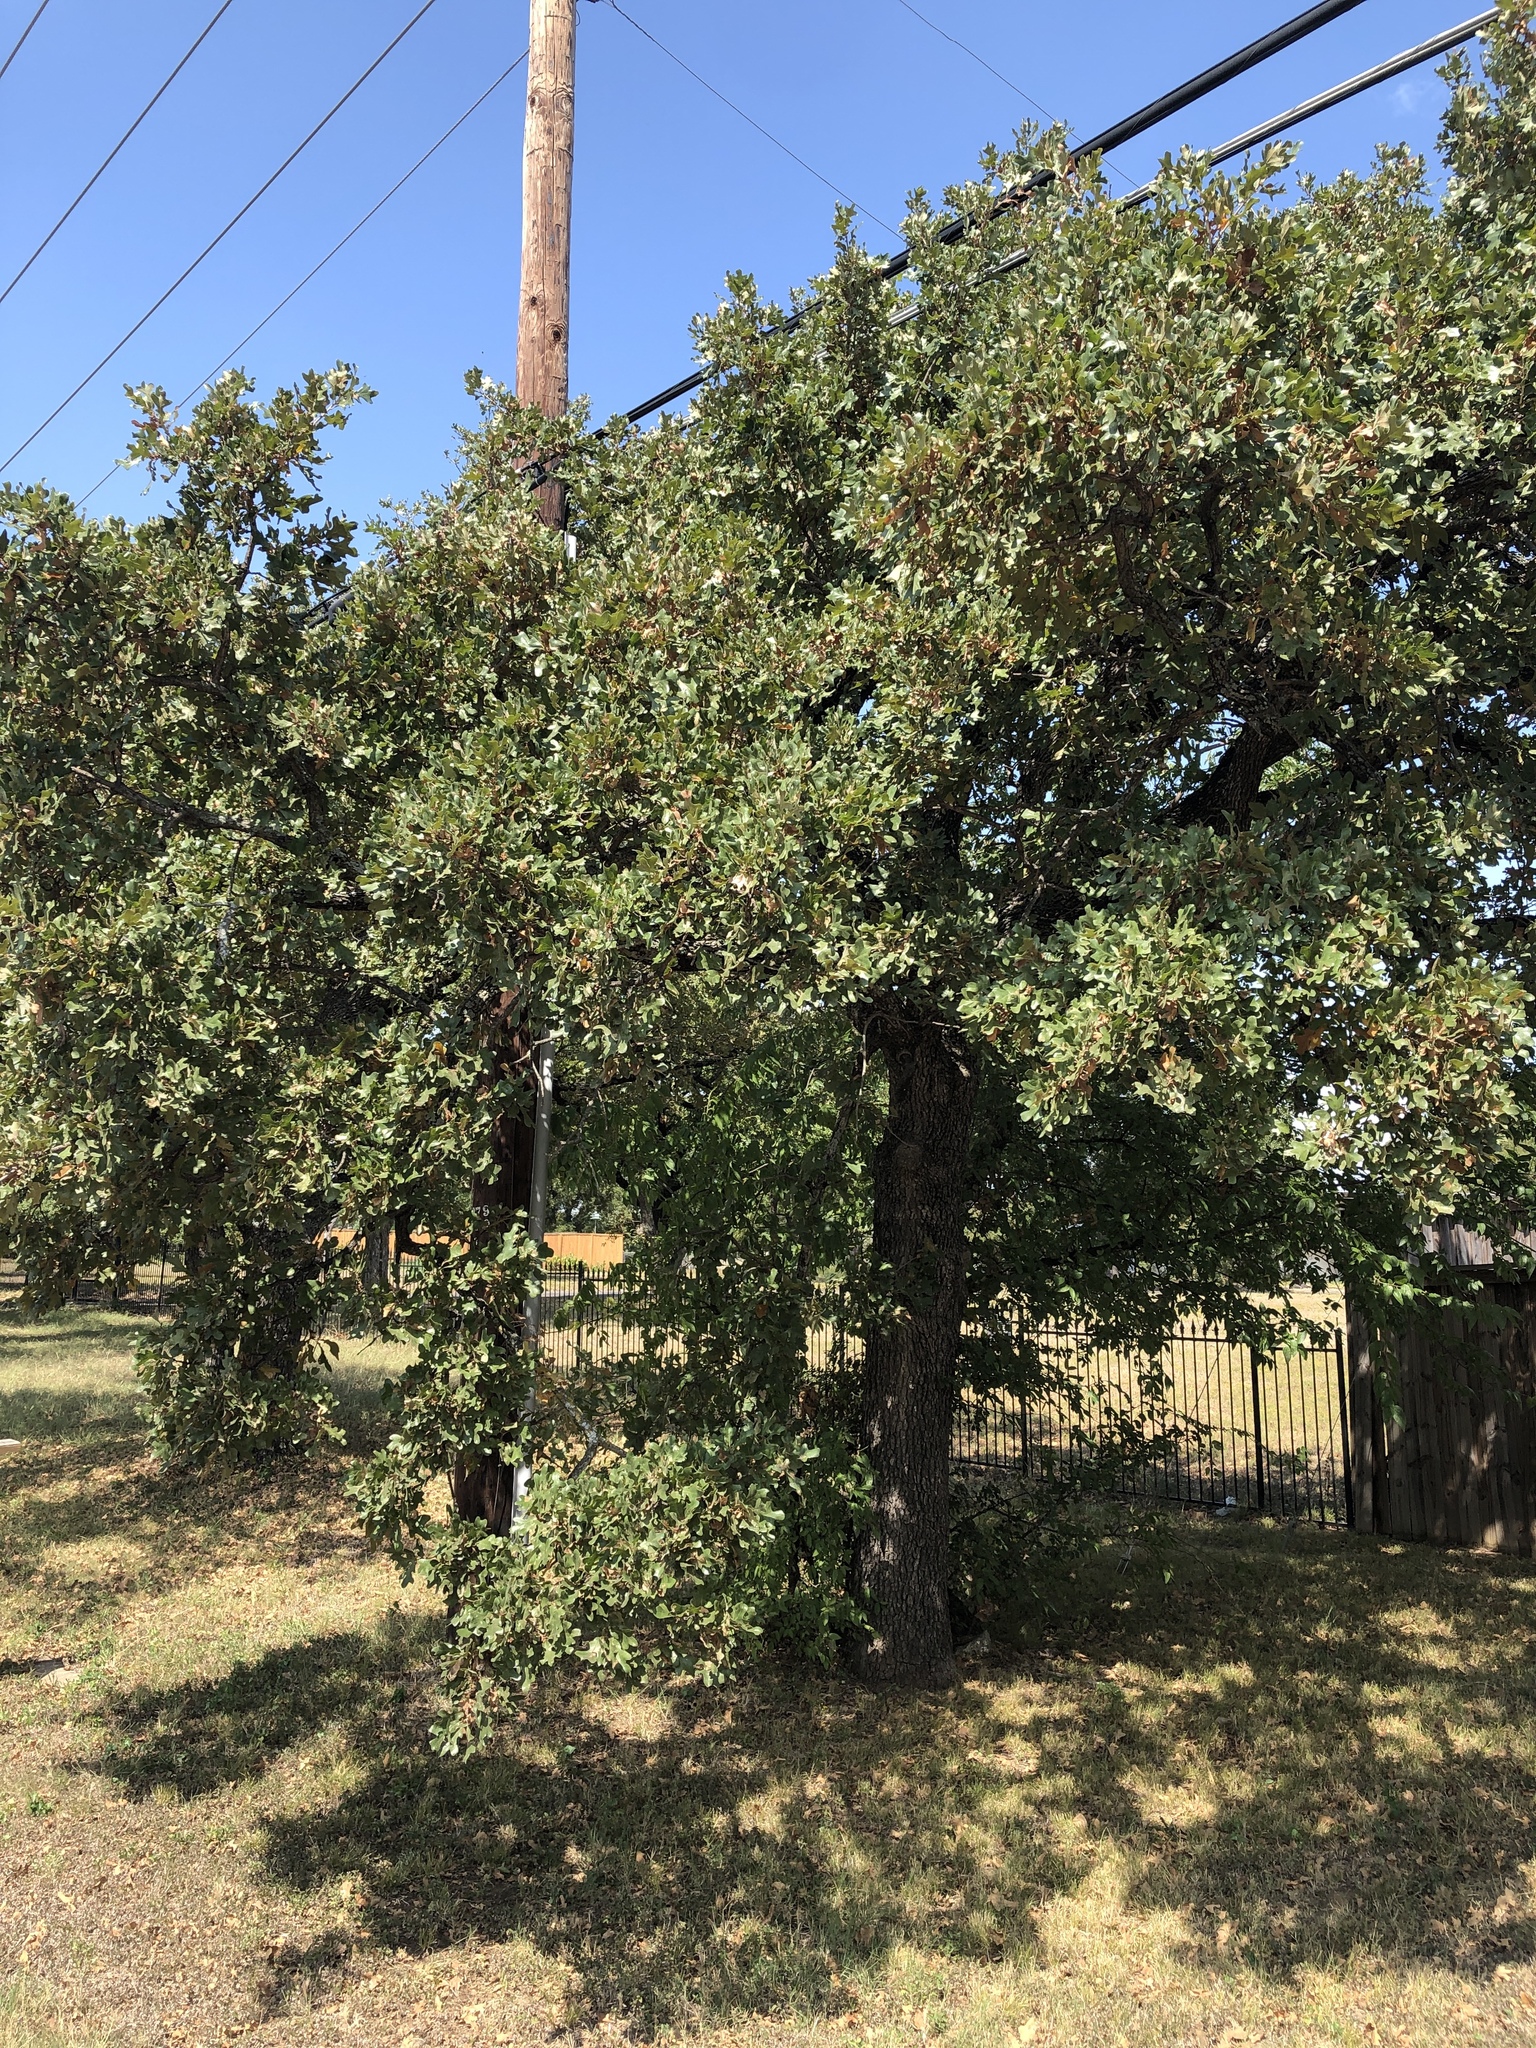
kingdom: Plantae
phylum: Tracheophyta
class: Magnoliopsida
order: Fagales
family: Fagaceae
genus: Quercus
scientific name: Quercus stellata
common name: Post oak
